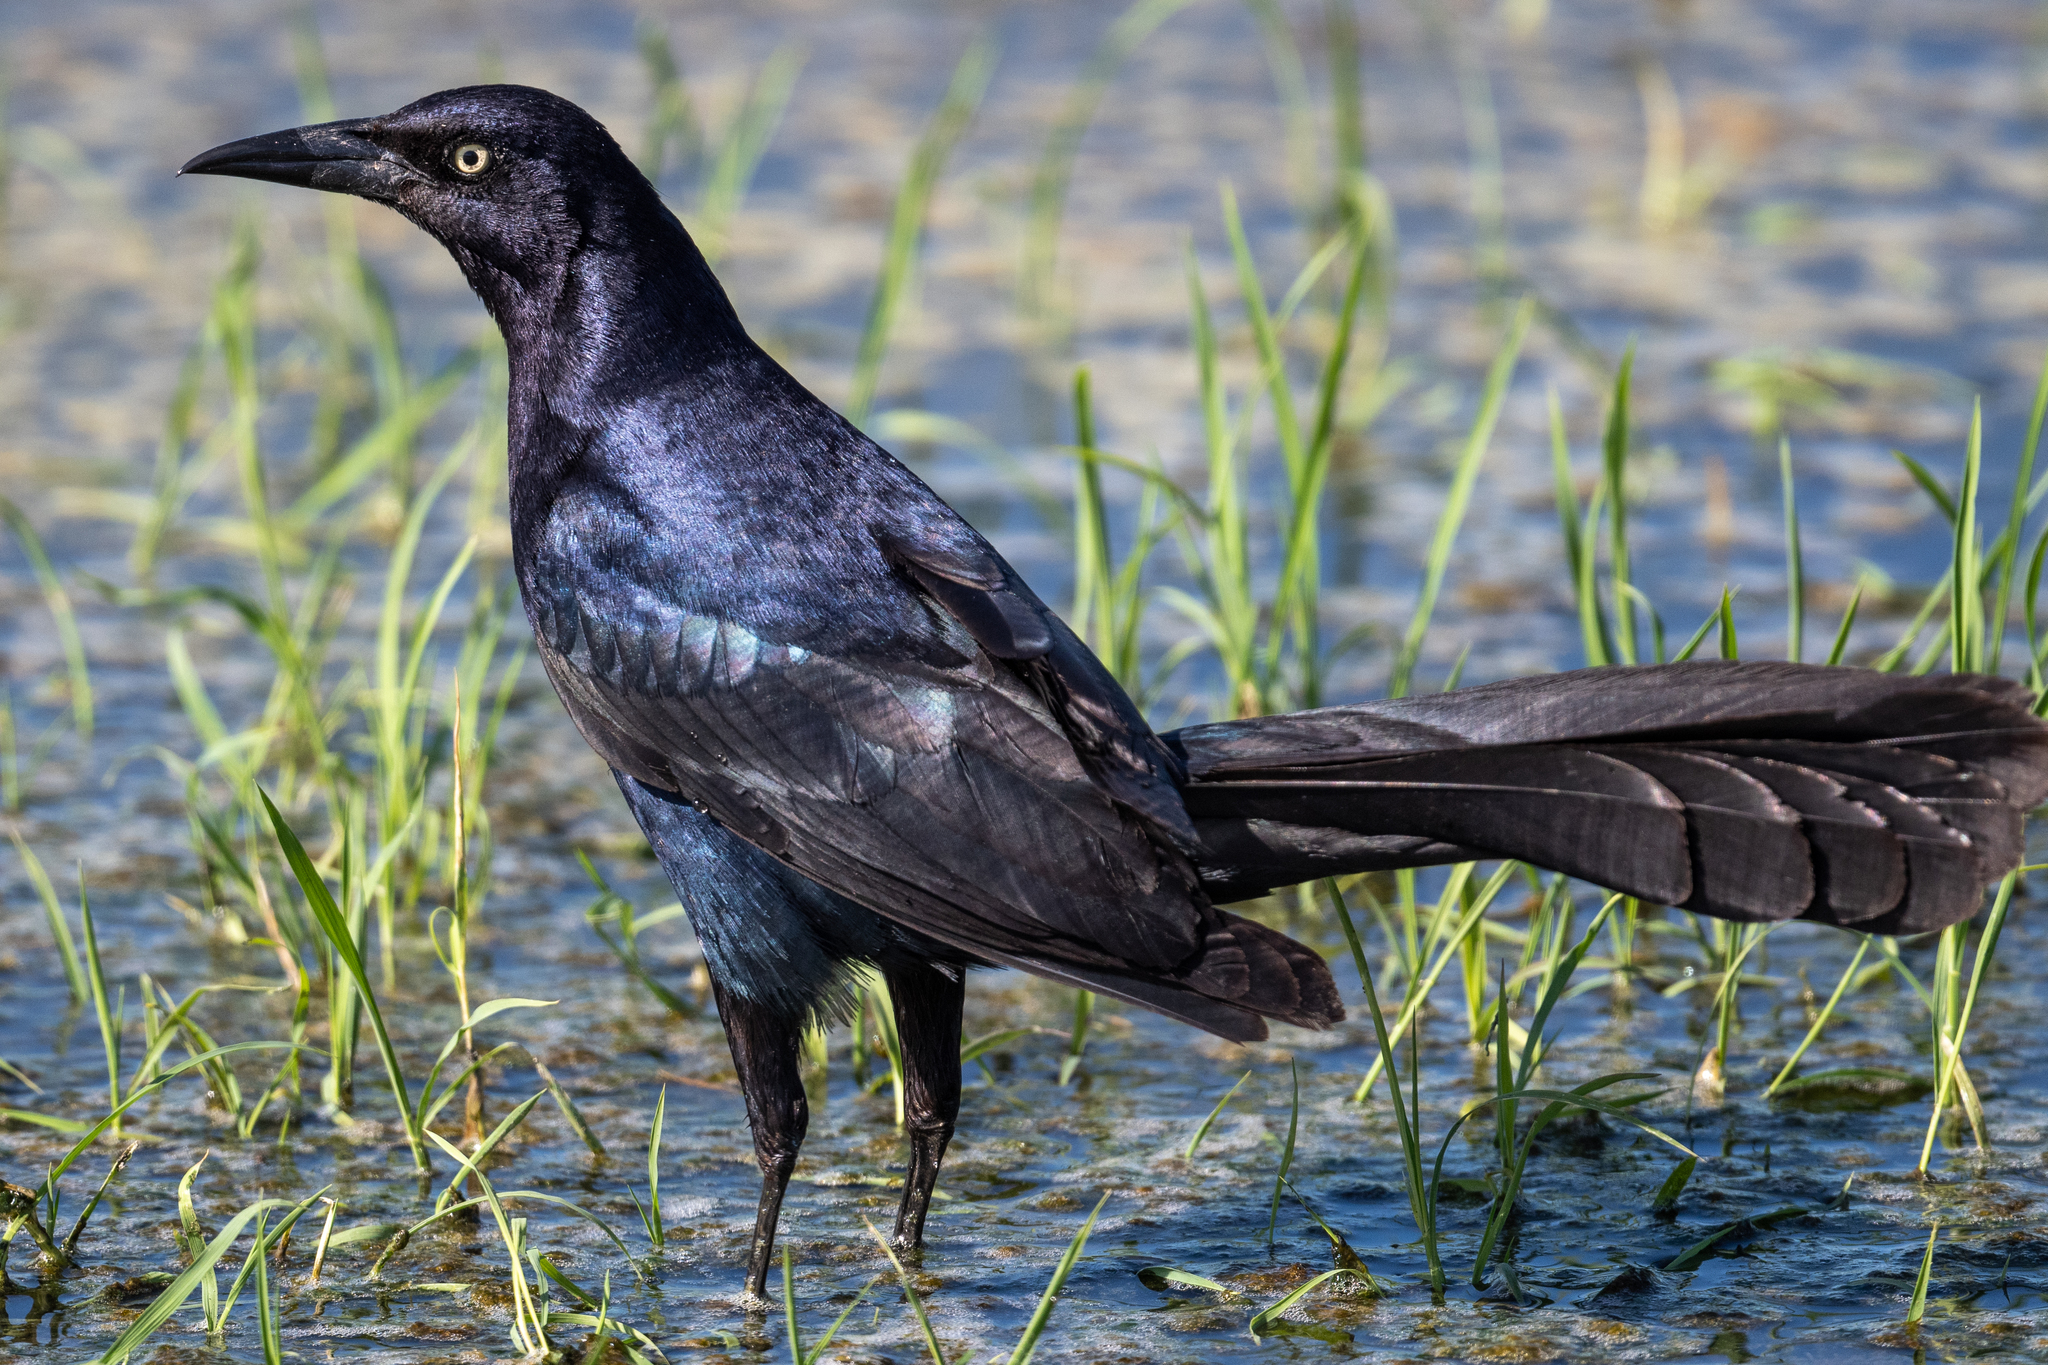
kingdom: Animalia
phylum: Chordata
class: Aves
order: Passeriformes
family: Icteridae
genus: Quiscalus
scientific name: Quiscalus mexicanus
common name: Great-tailed grackle
